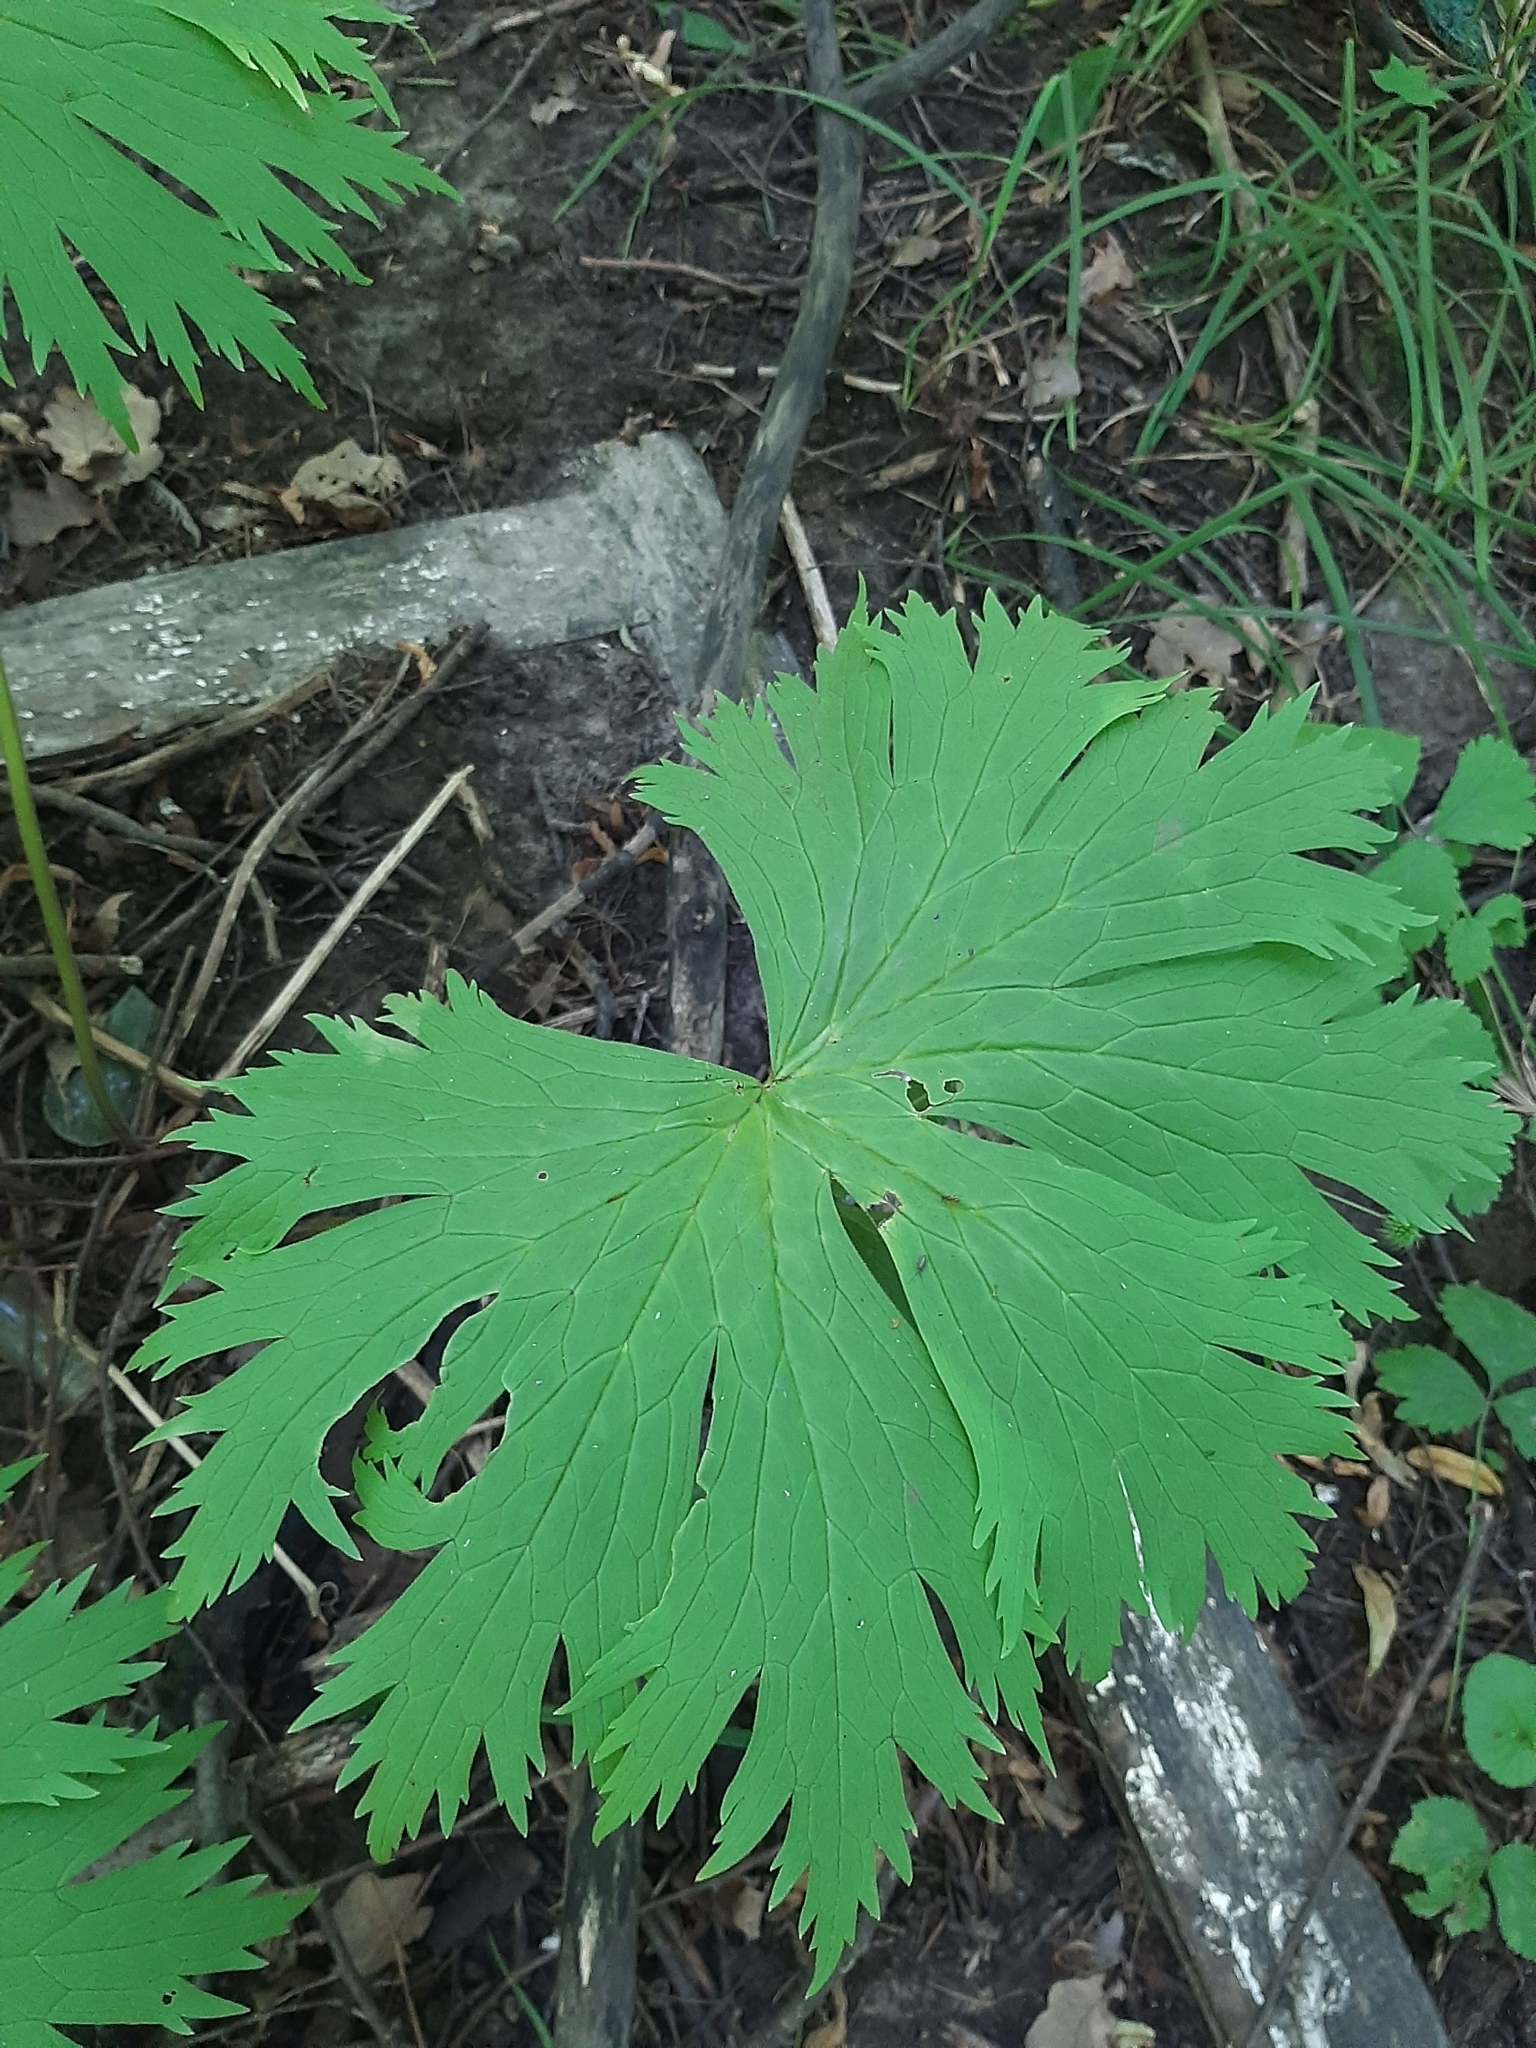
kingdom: Plantae
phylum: Tracheophyta
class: Magnoliopsida
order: Ranunculales
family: Ranunculaceae
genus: Aconitum
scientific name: Aconitum septentrionale
